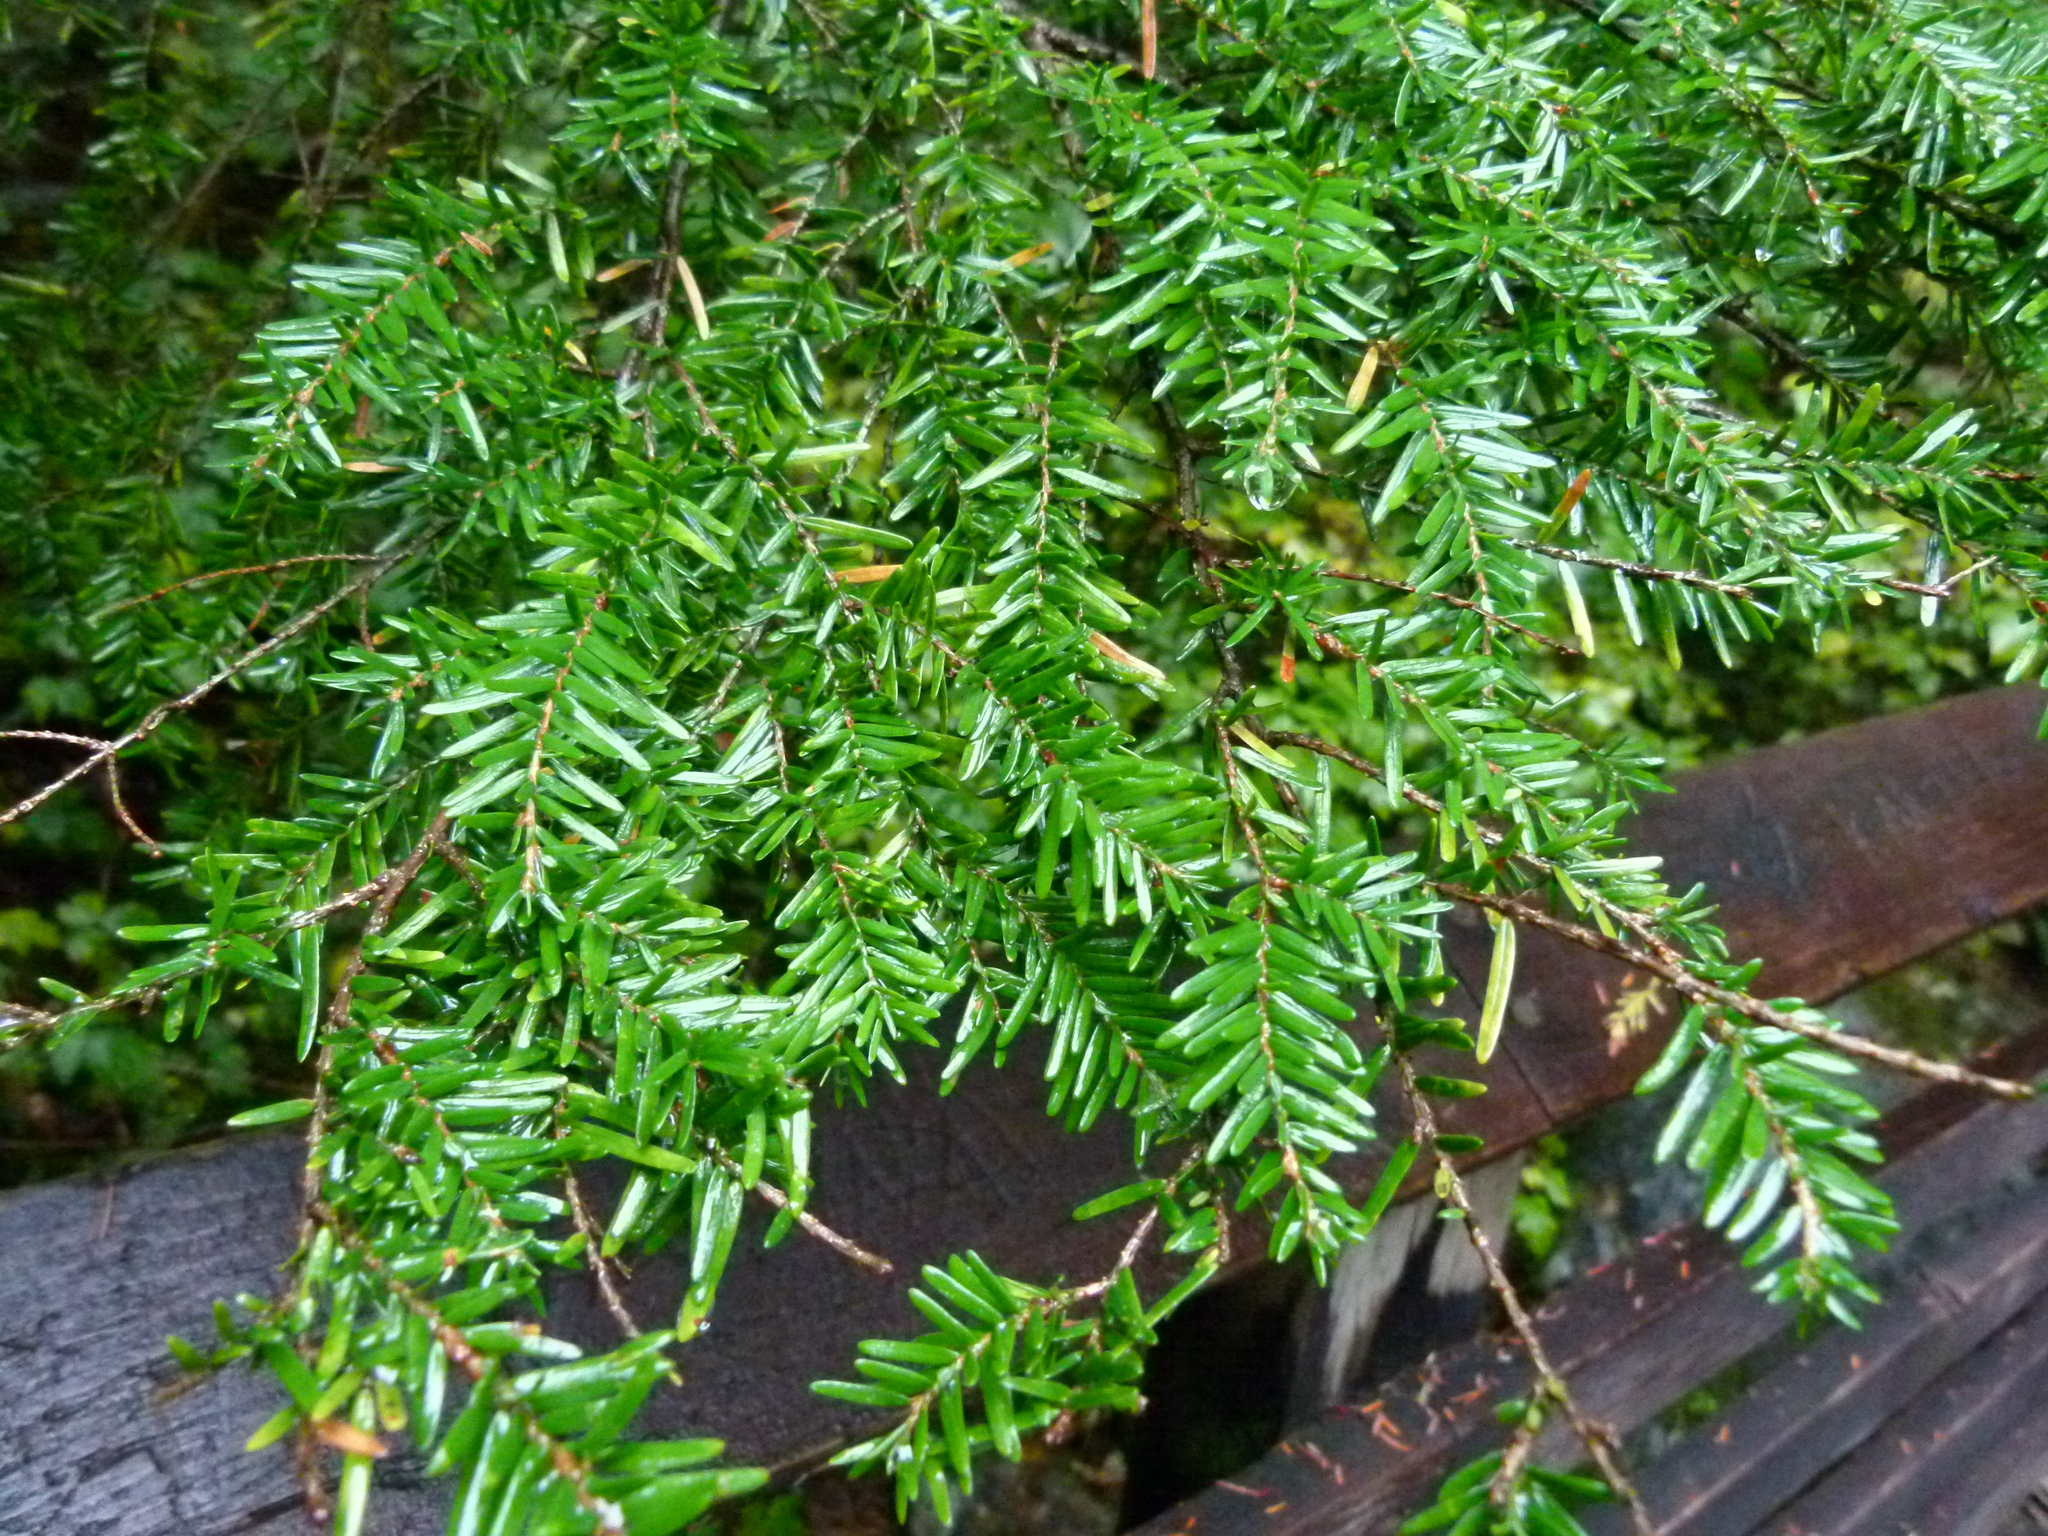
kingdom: Plantae
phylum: Tracheophyta
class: Pinopsida
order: Pinales
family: Pinaceae
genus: Tsuga
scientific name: Tsuga heterophylla
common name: Western hemlock
